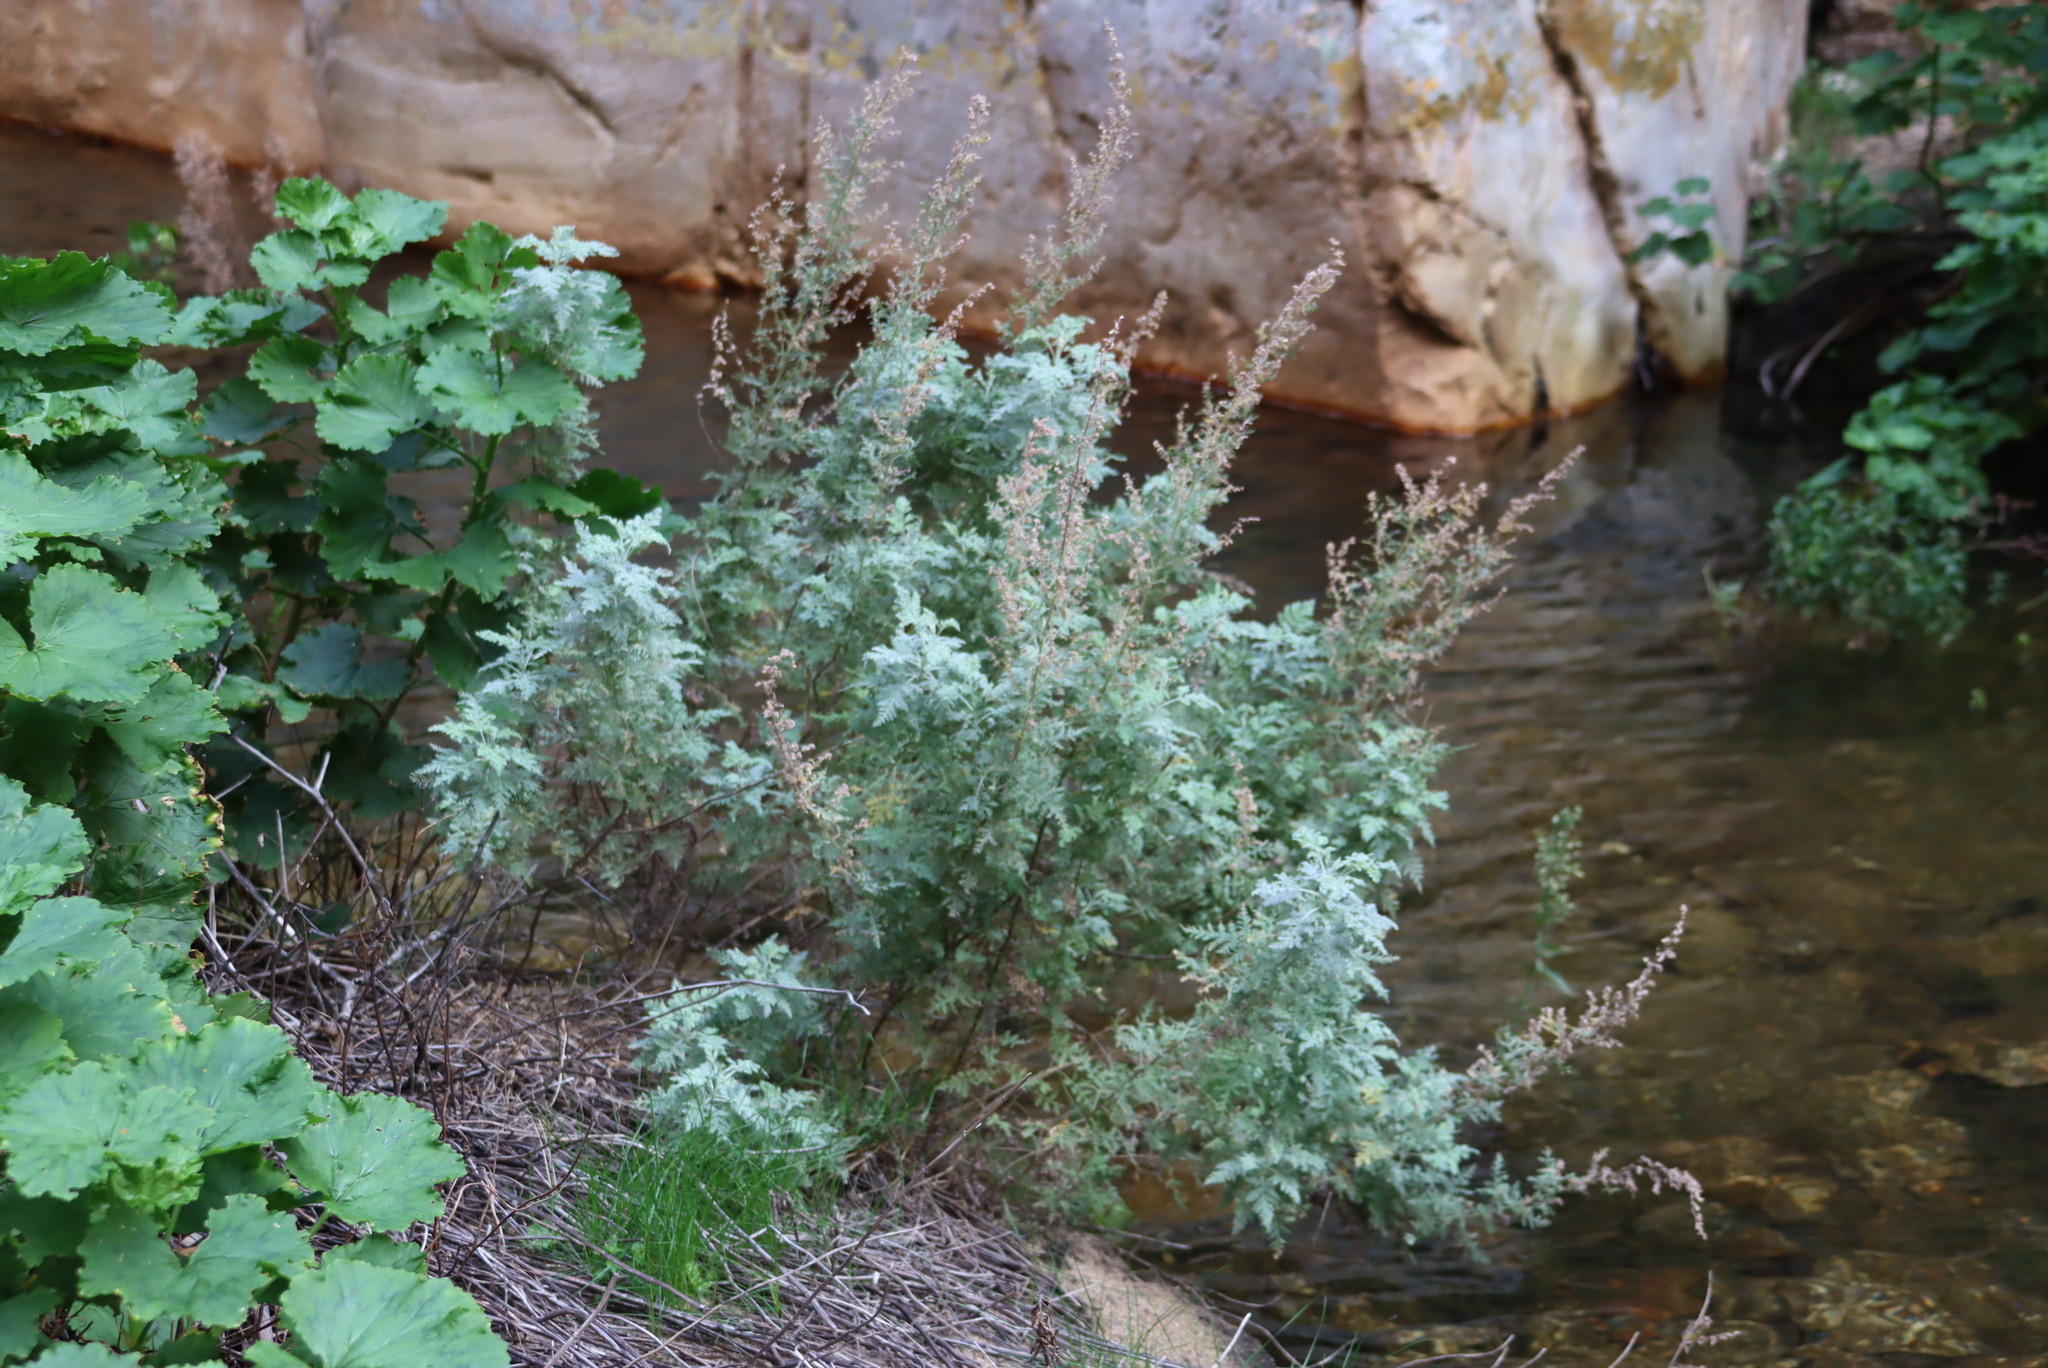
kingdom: Plantae
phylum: Tracheophyta
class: Magnoliopsida
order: Asterales
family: Asteraceae
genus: Artemisia
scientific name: Artemisia afra
